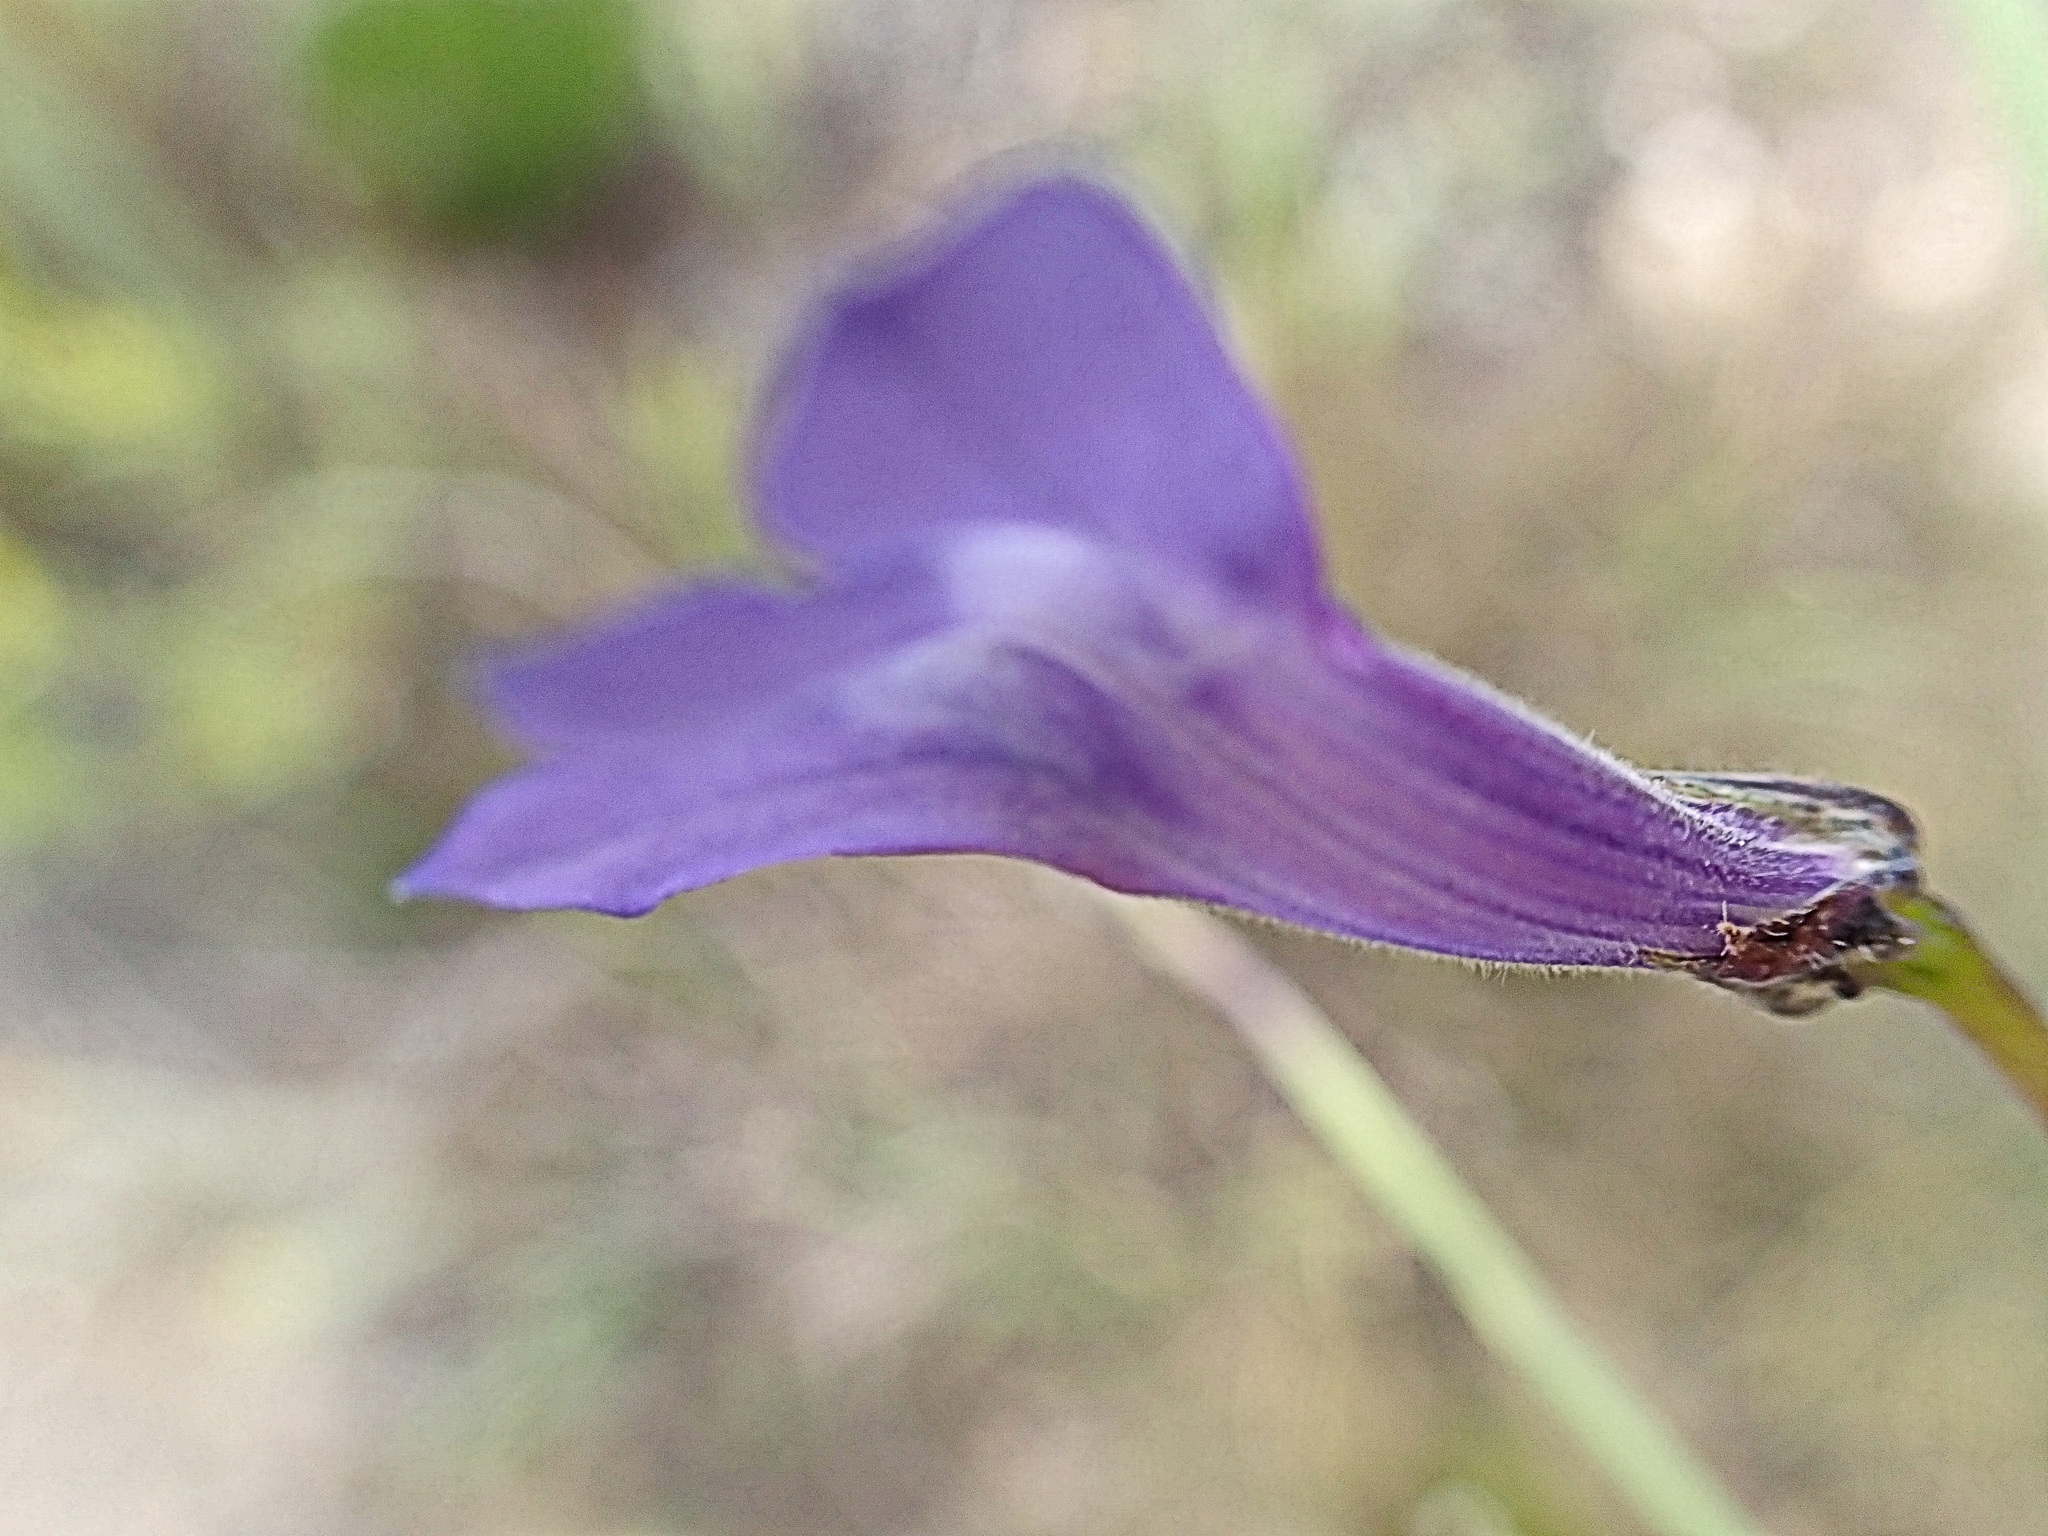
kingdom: Plantae
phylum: Tracheophyta
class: Magnoliopsida
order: Asterales
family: Campanulaceae
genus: Lobelia
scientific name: Lobelia linearis
